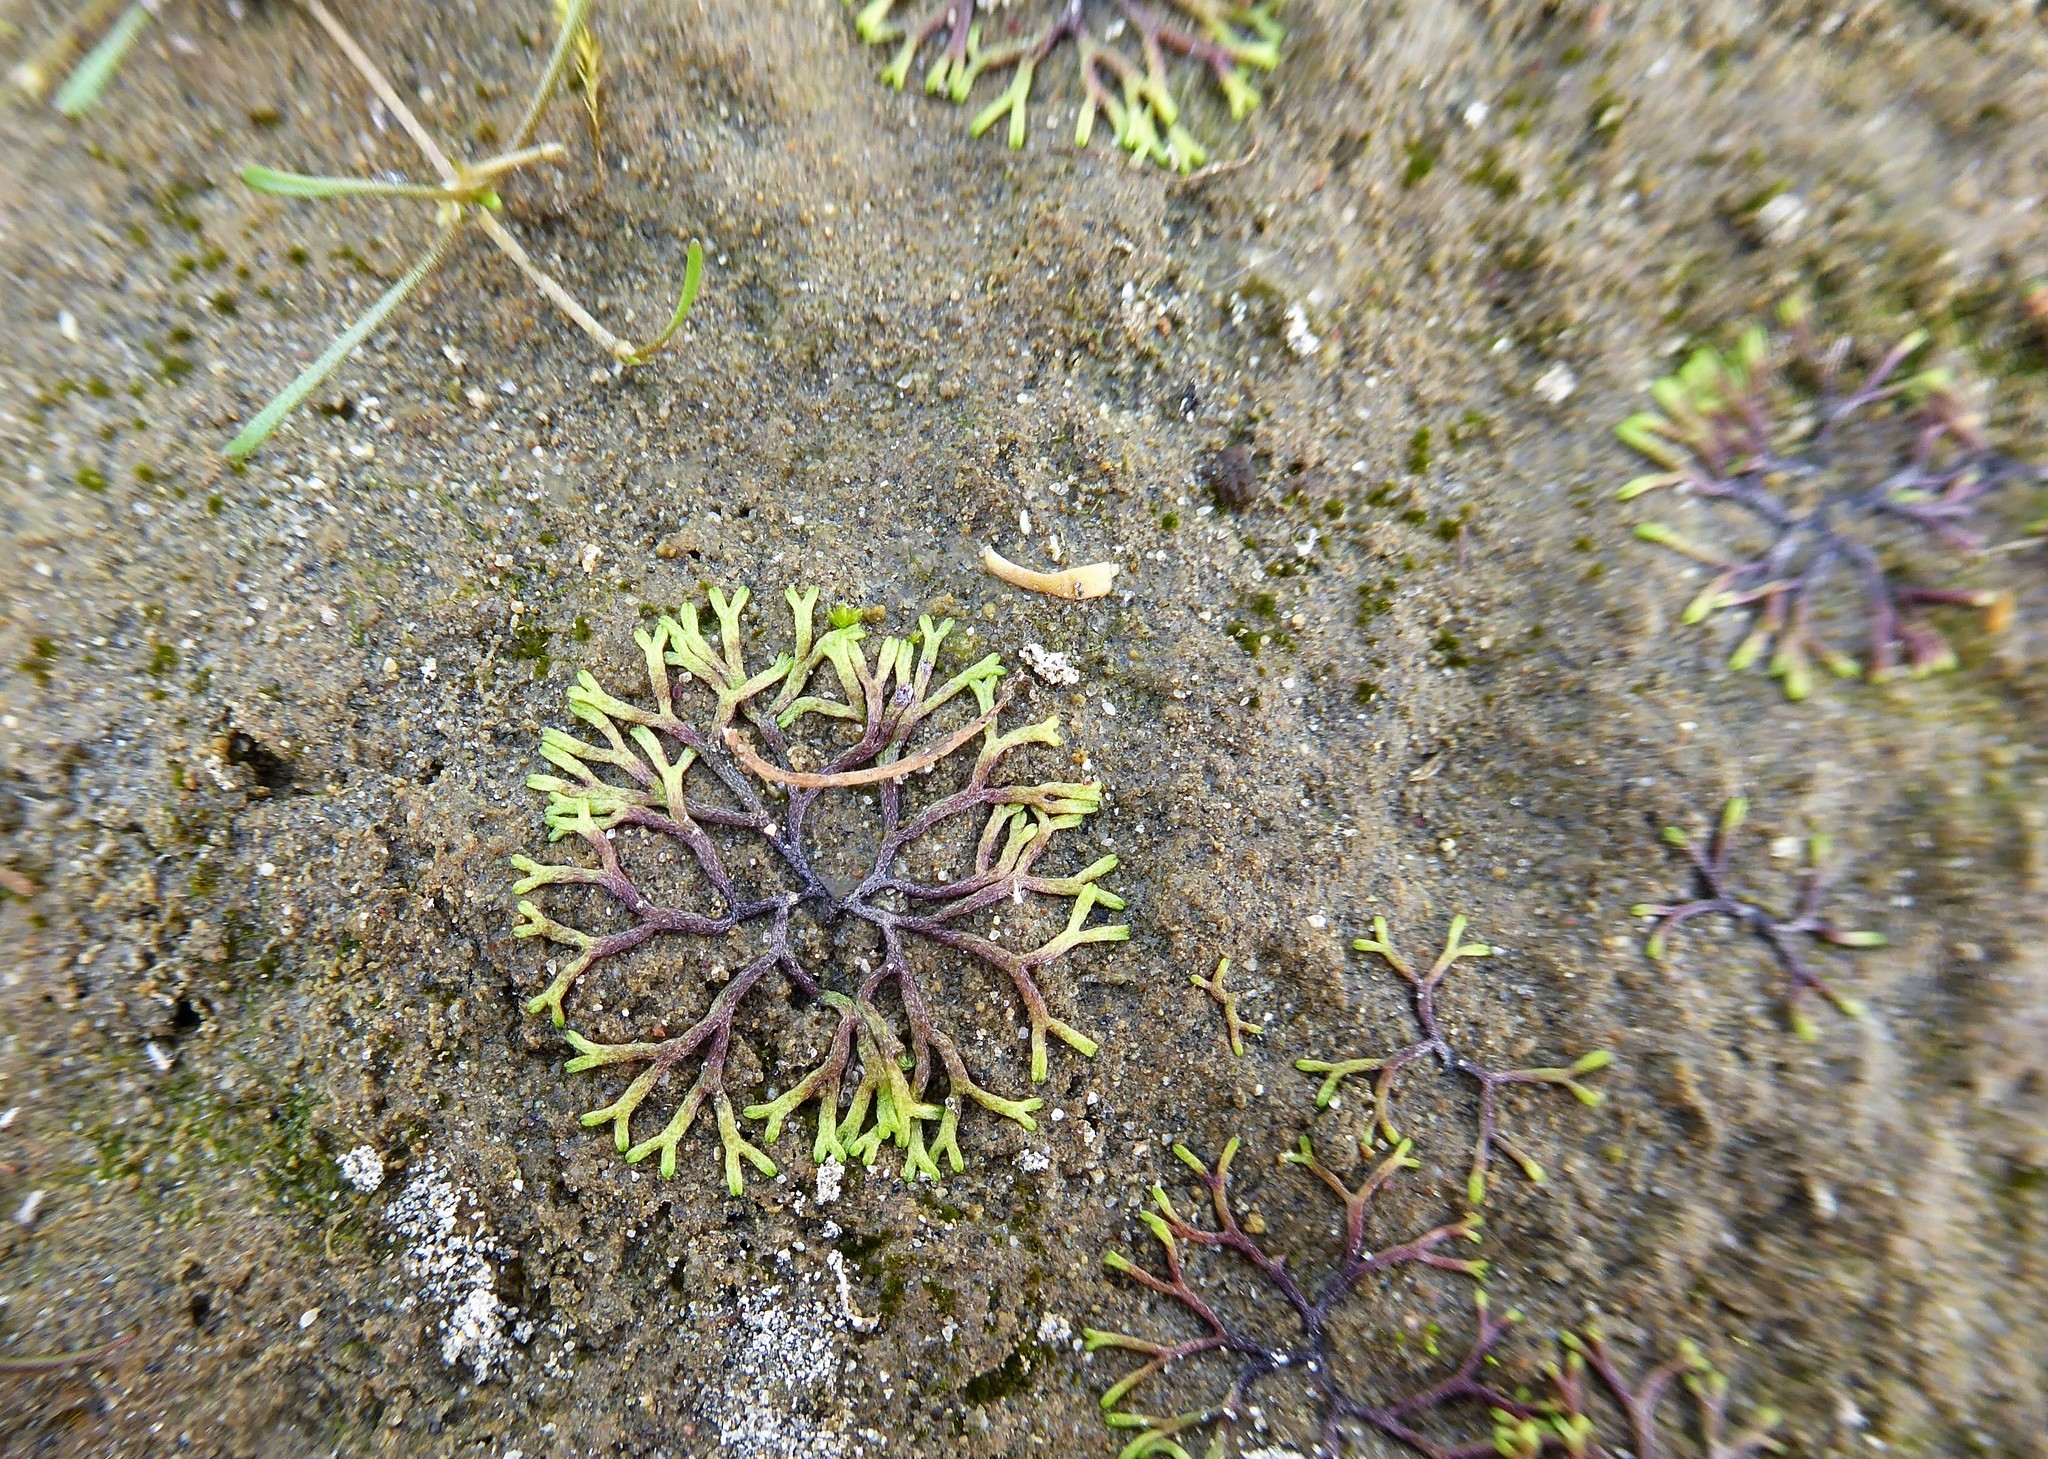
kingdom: Plantae
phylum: Marchantiophyta
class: Marchantiopsida
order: Marchantiales
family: Ricciaceae
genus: Riccia
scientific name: Riccia fluitans
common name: Floating crystalwort
